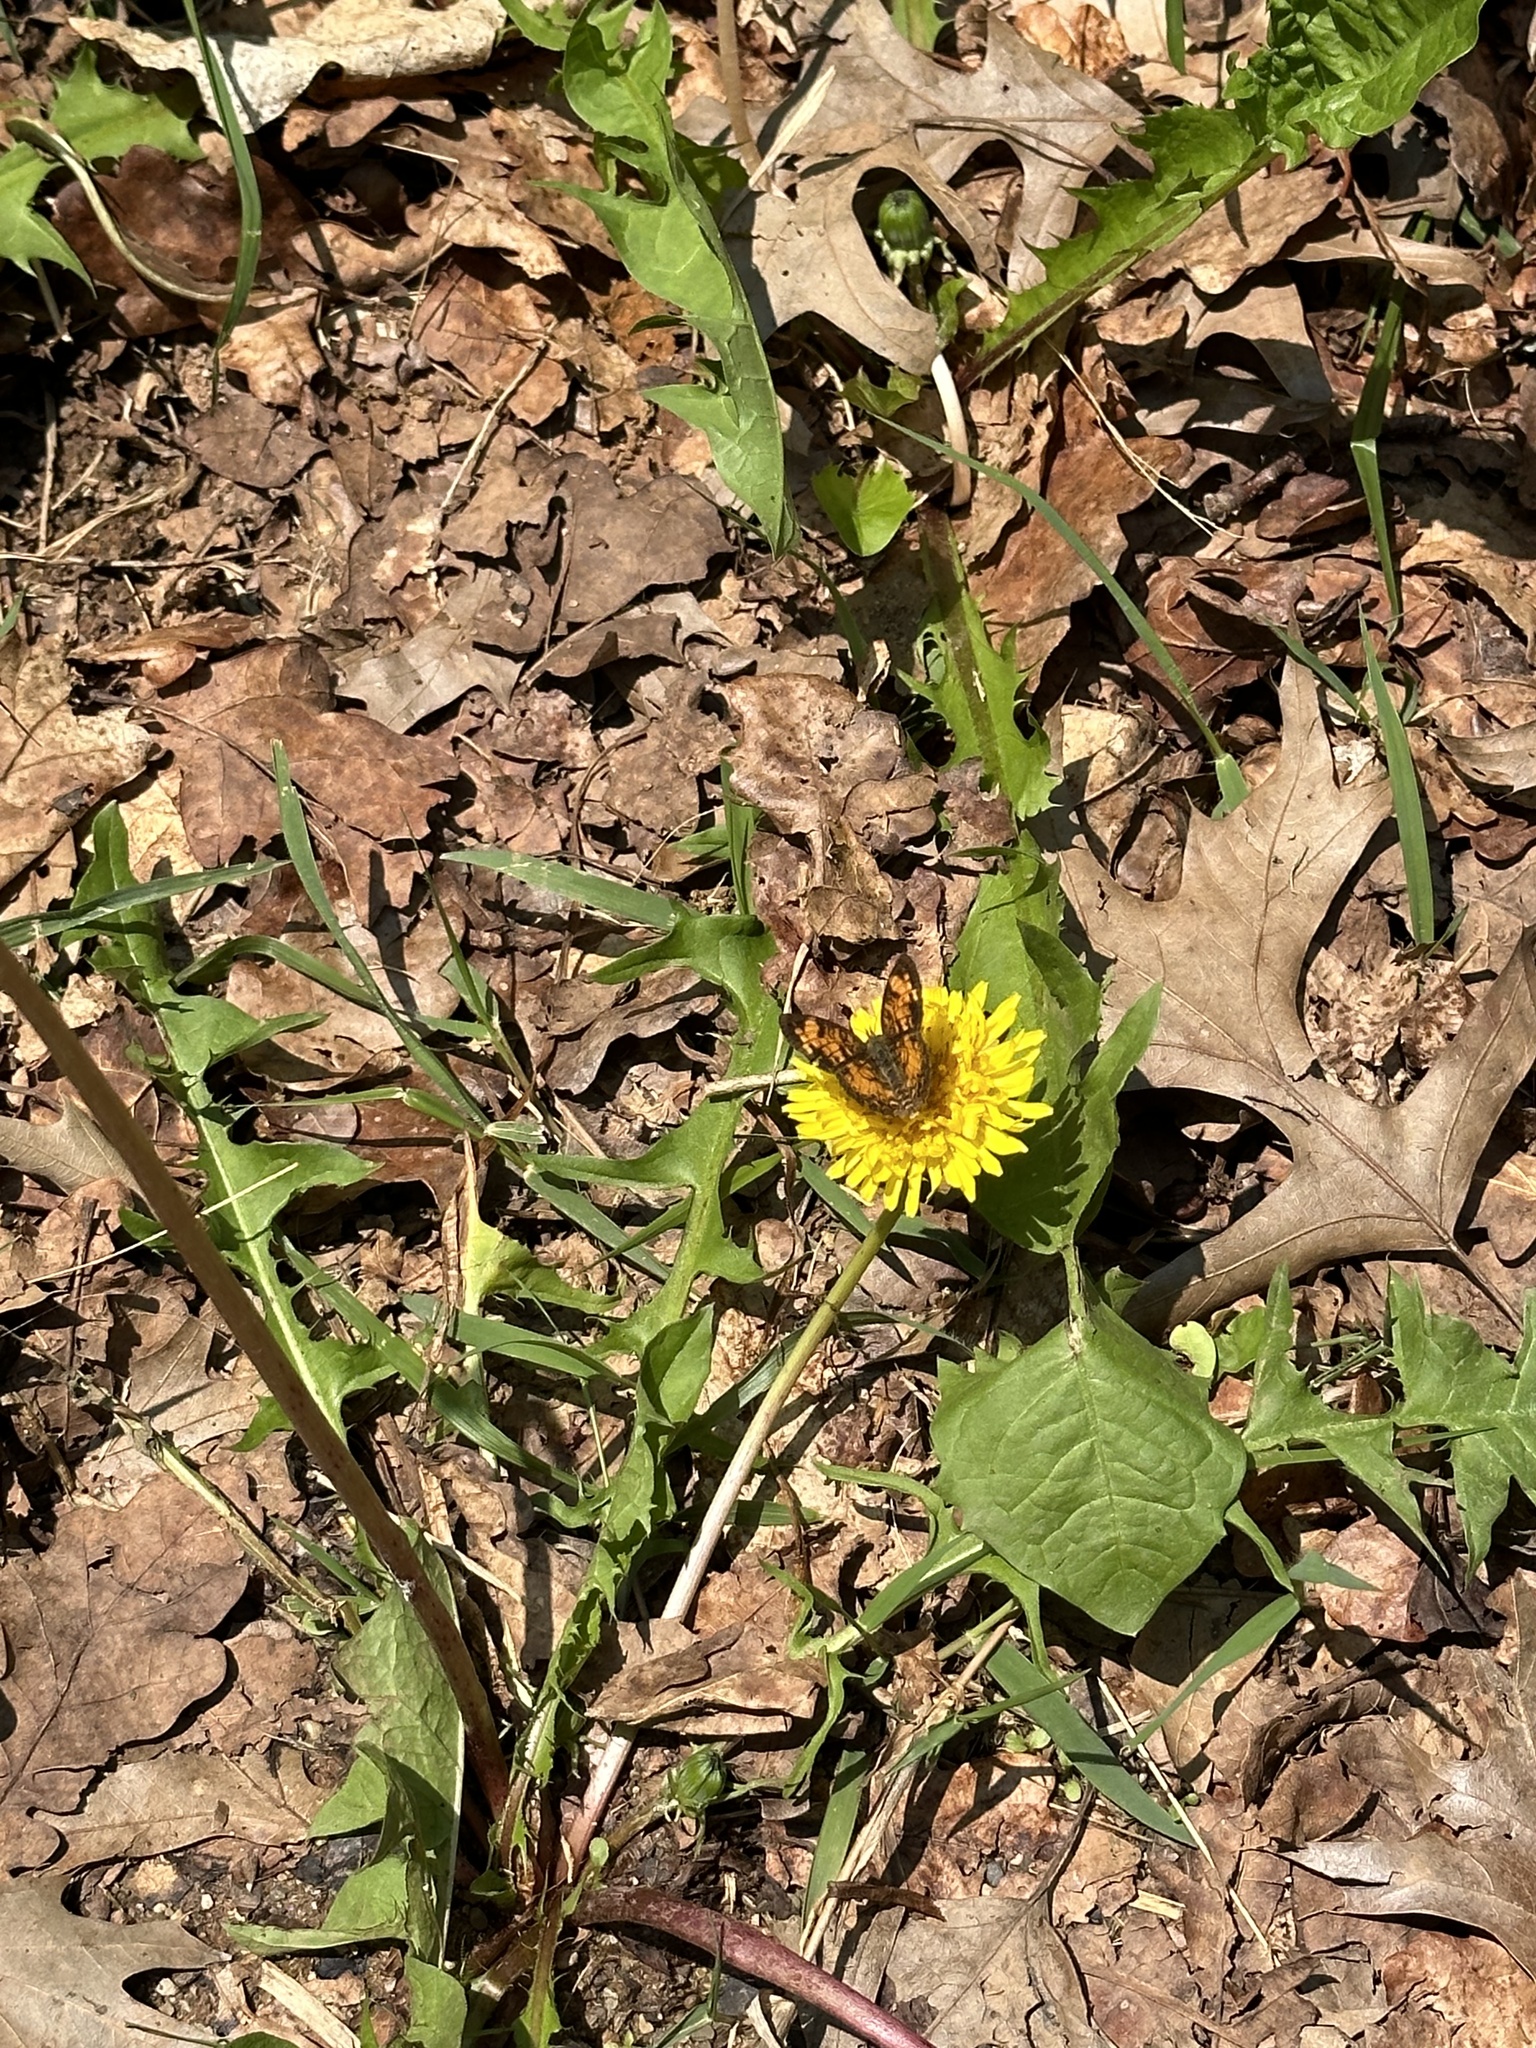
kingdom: Animalia
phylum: Arthropoda
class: Insecta
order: Lepidoptera
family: Nymphalidae
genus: Phyciodes
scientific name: Phyciodes tharos
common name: Pearl crescent
